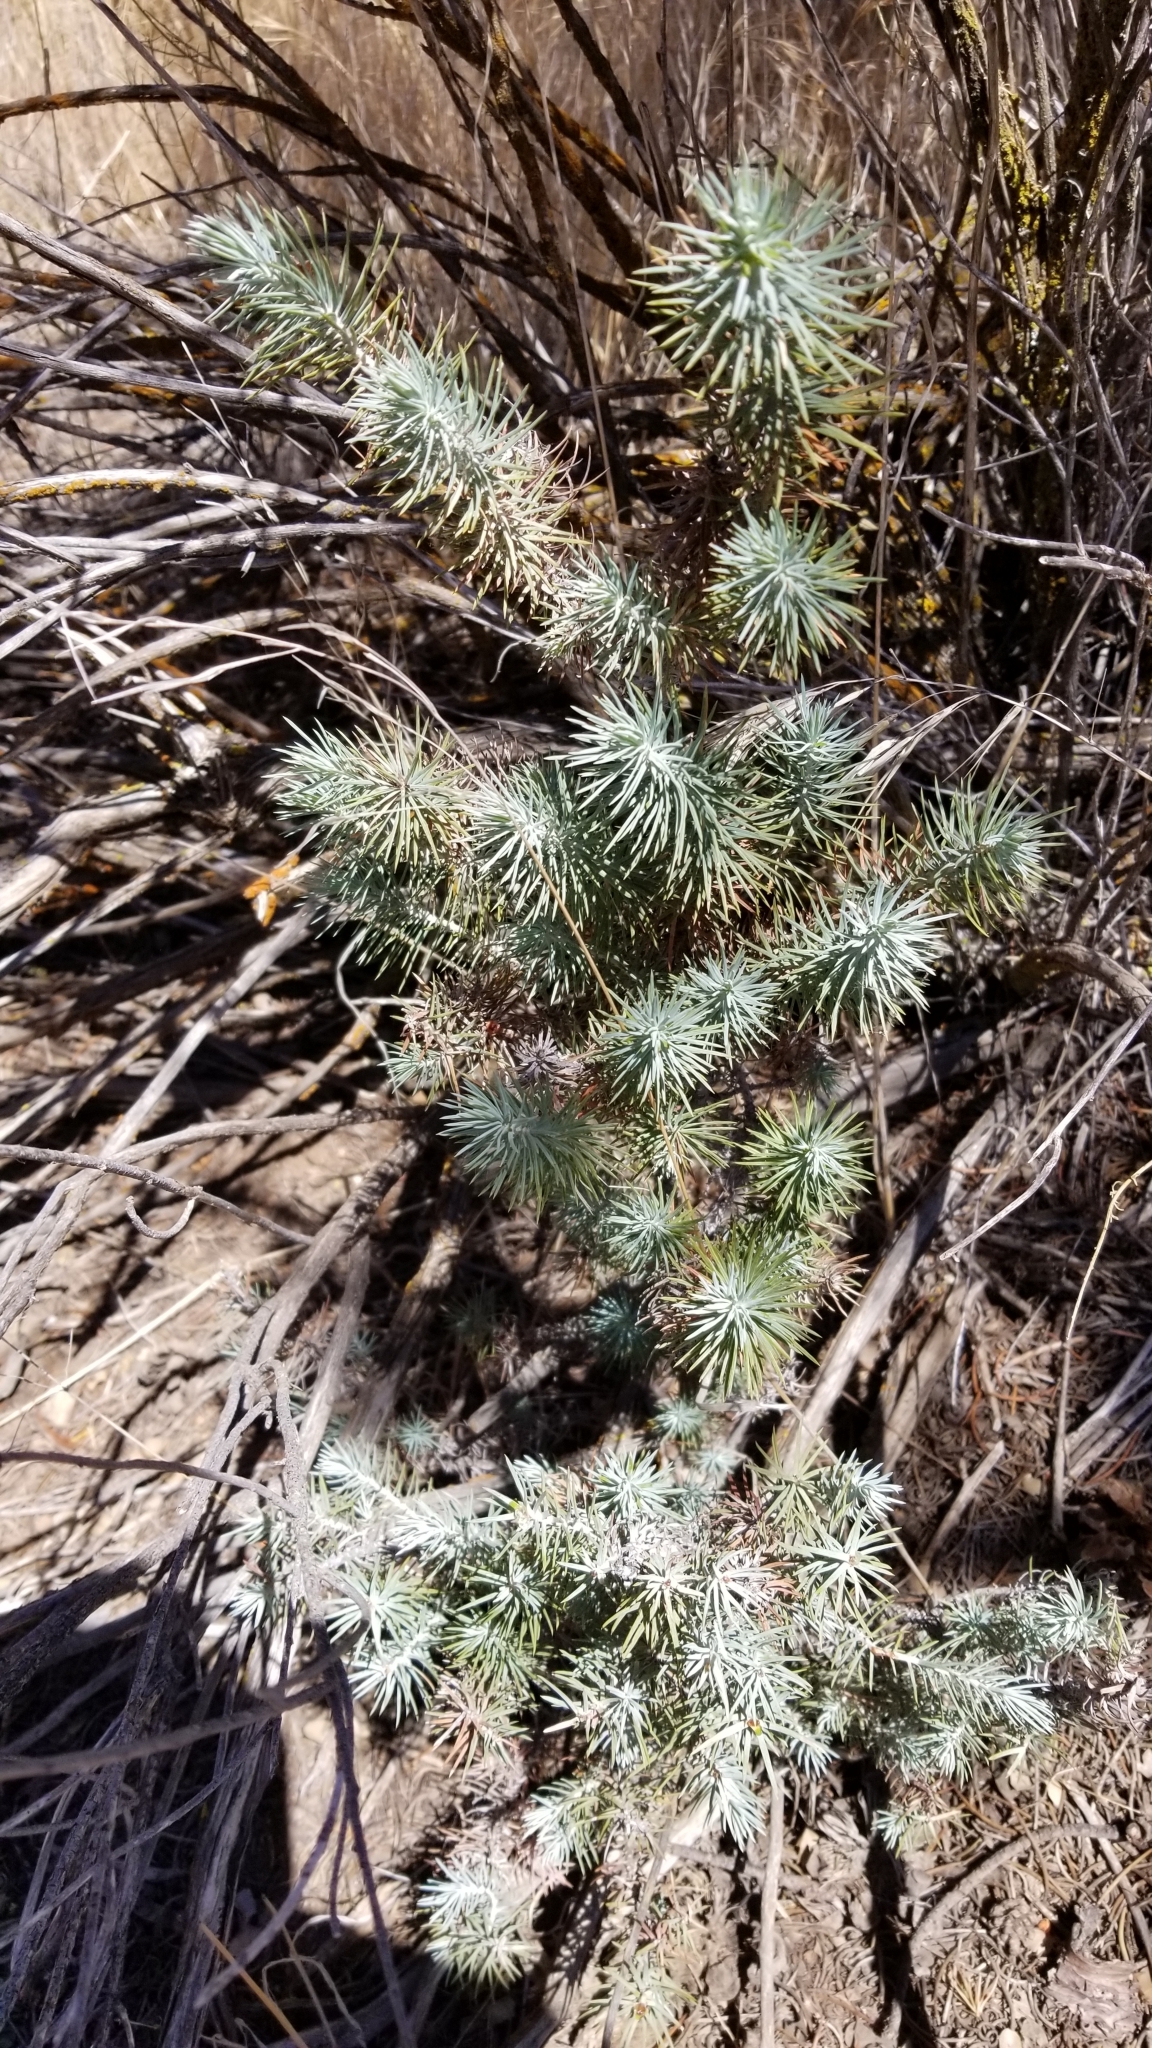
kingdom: Plantae
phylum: Tracheophyta
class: Pinopsida
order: Pinales
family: Pinaceae
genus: Pinus
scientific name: Pinus monophylla
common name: One-leaved nut pine
